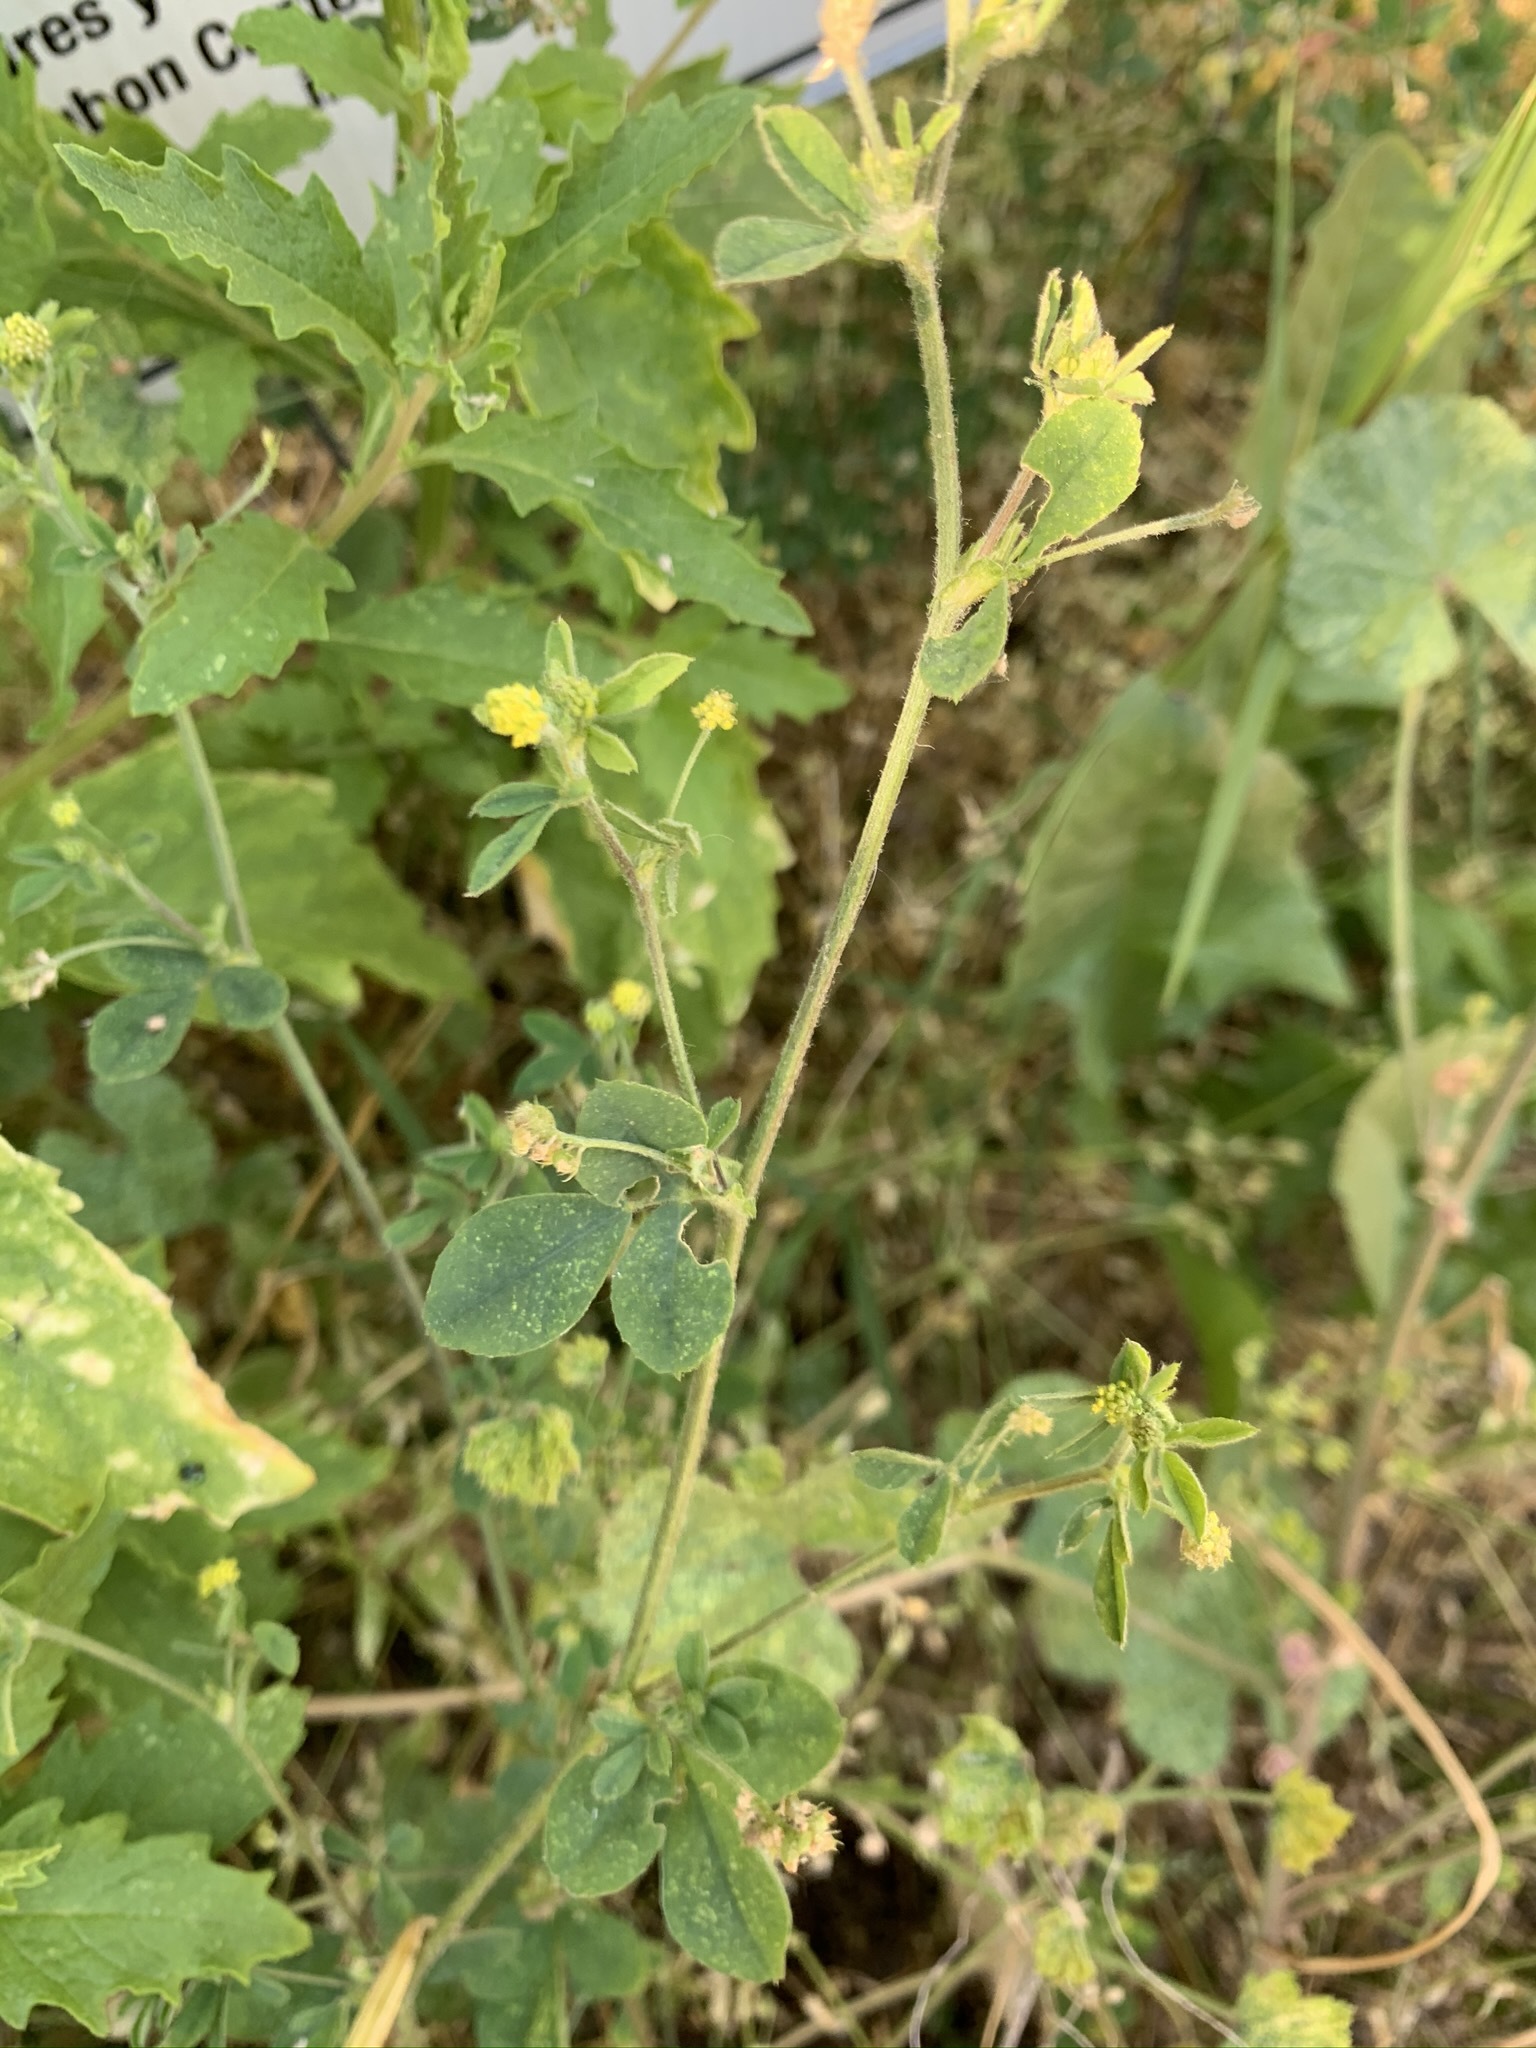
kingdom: Plantae
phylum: Tracheophyta
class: Magnoliopsida
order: Fabales
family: Fabaceae
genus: Medicago
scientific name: Medicago lupulina
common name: Black medick
